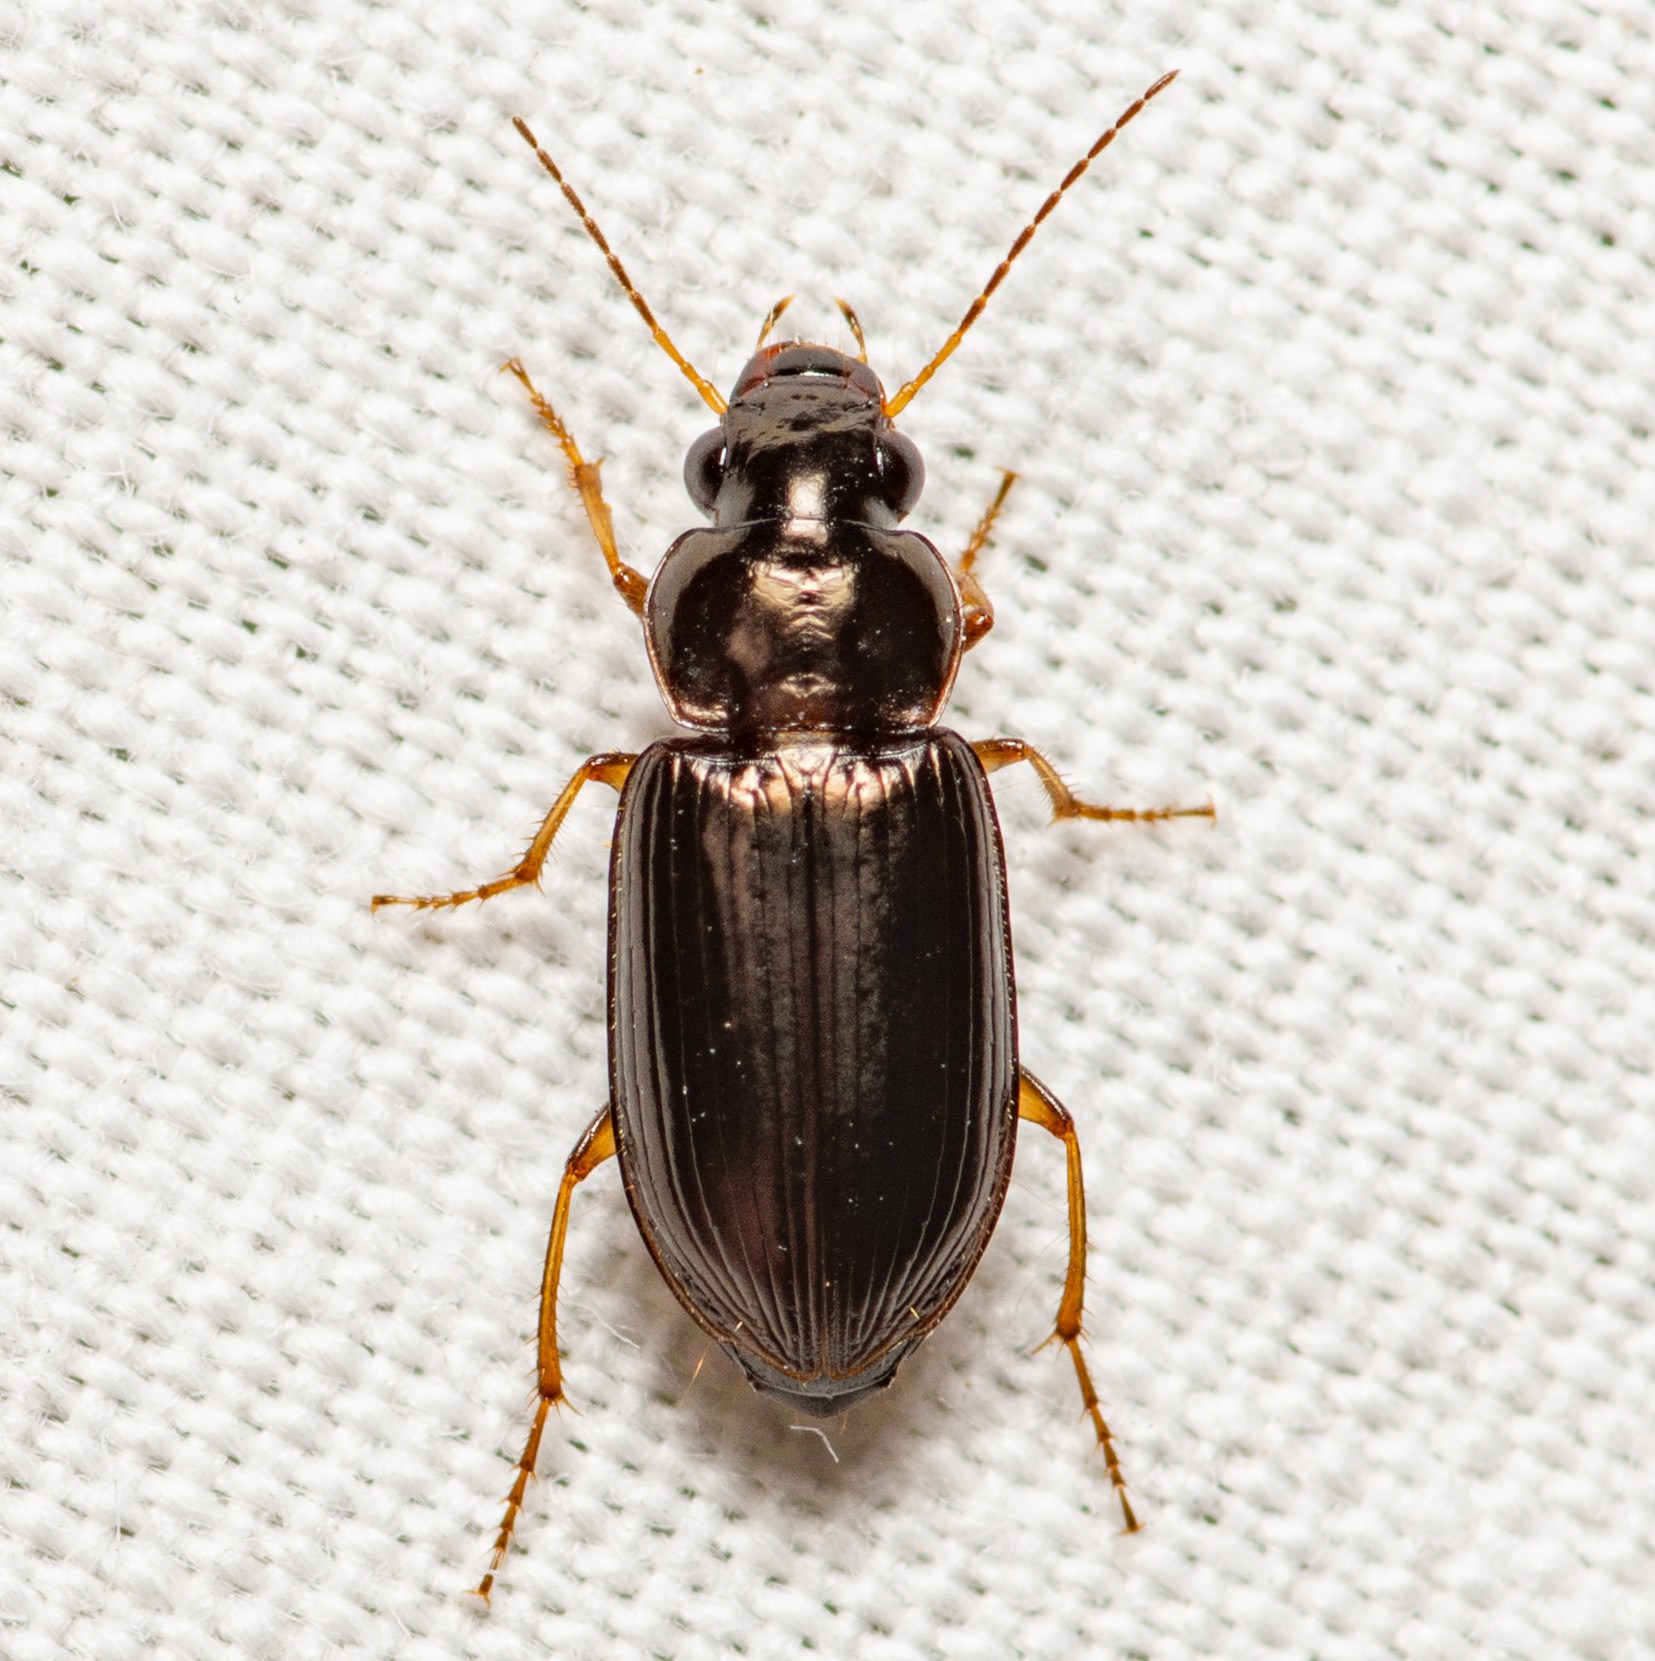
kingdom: Animalia
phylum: Arthropoda
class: Insecta
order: Coleoptera
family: Carabidae
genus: Selenophorus
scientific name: Selenophorus fatuus
